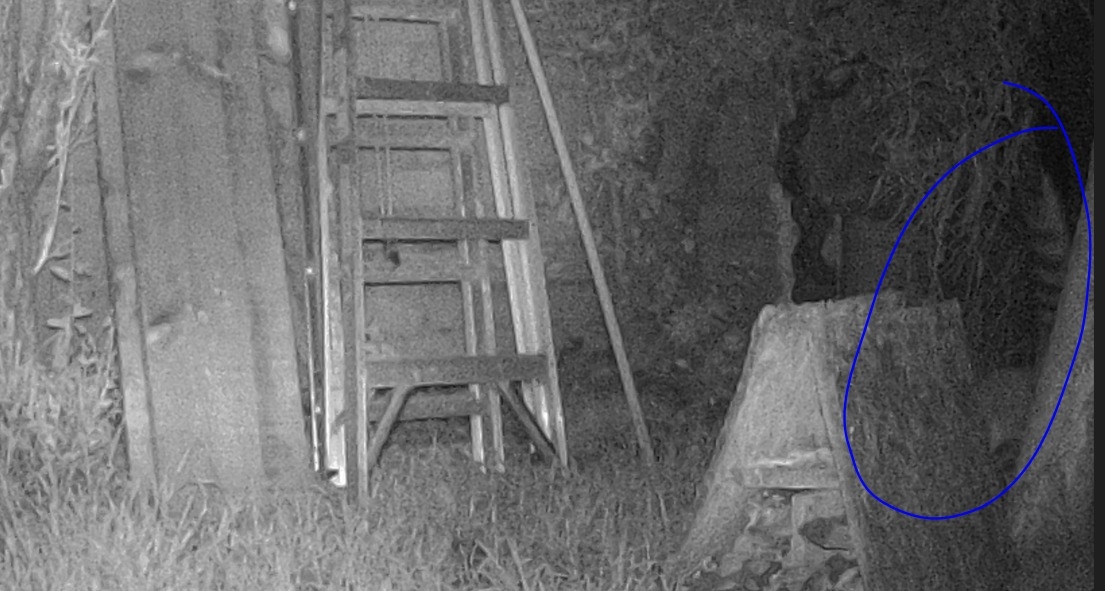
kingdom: Animalia
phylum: Chordata
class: Mammalia
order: Carnivora
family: Procyonidae
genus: Bassariscus
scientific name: Bassariscus astutus
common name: Ringtail
